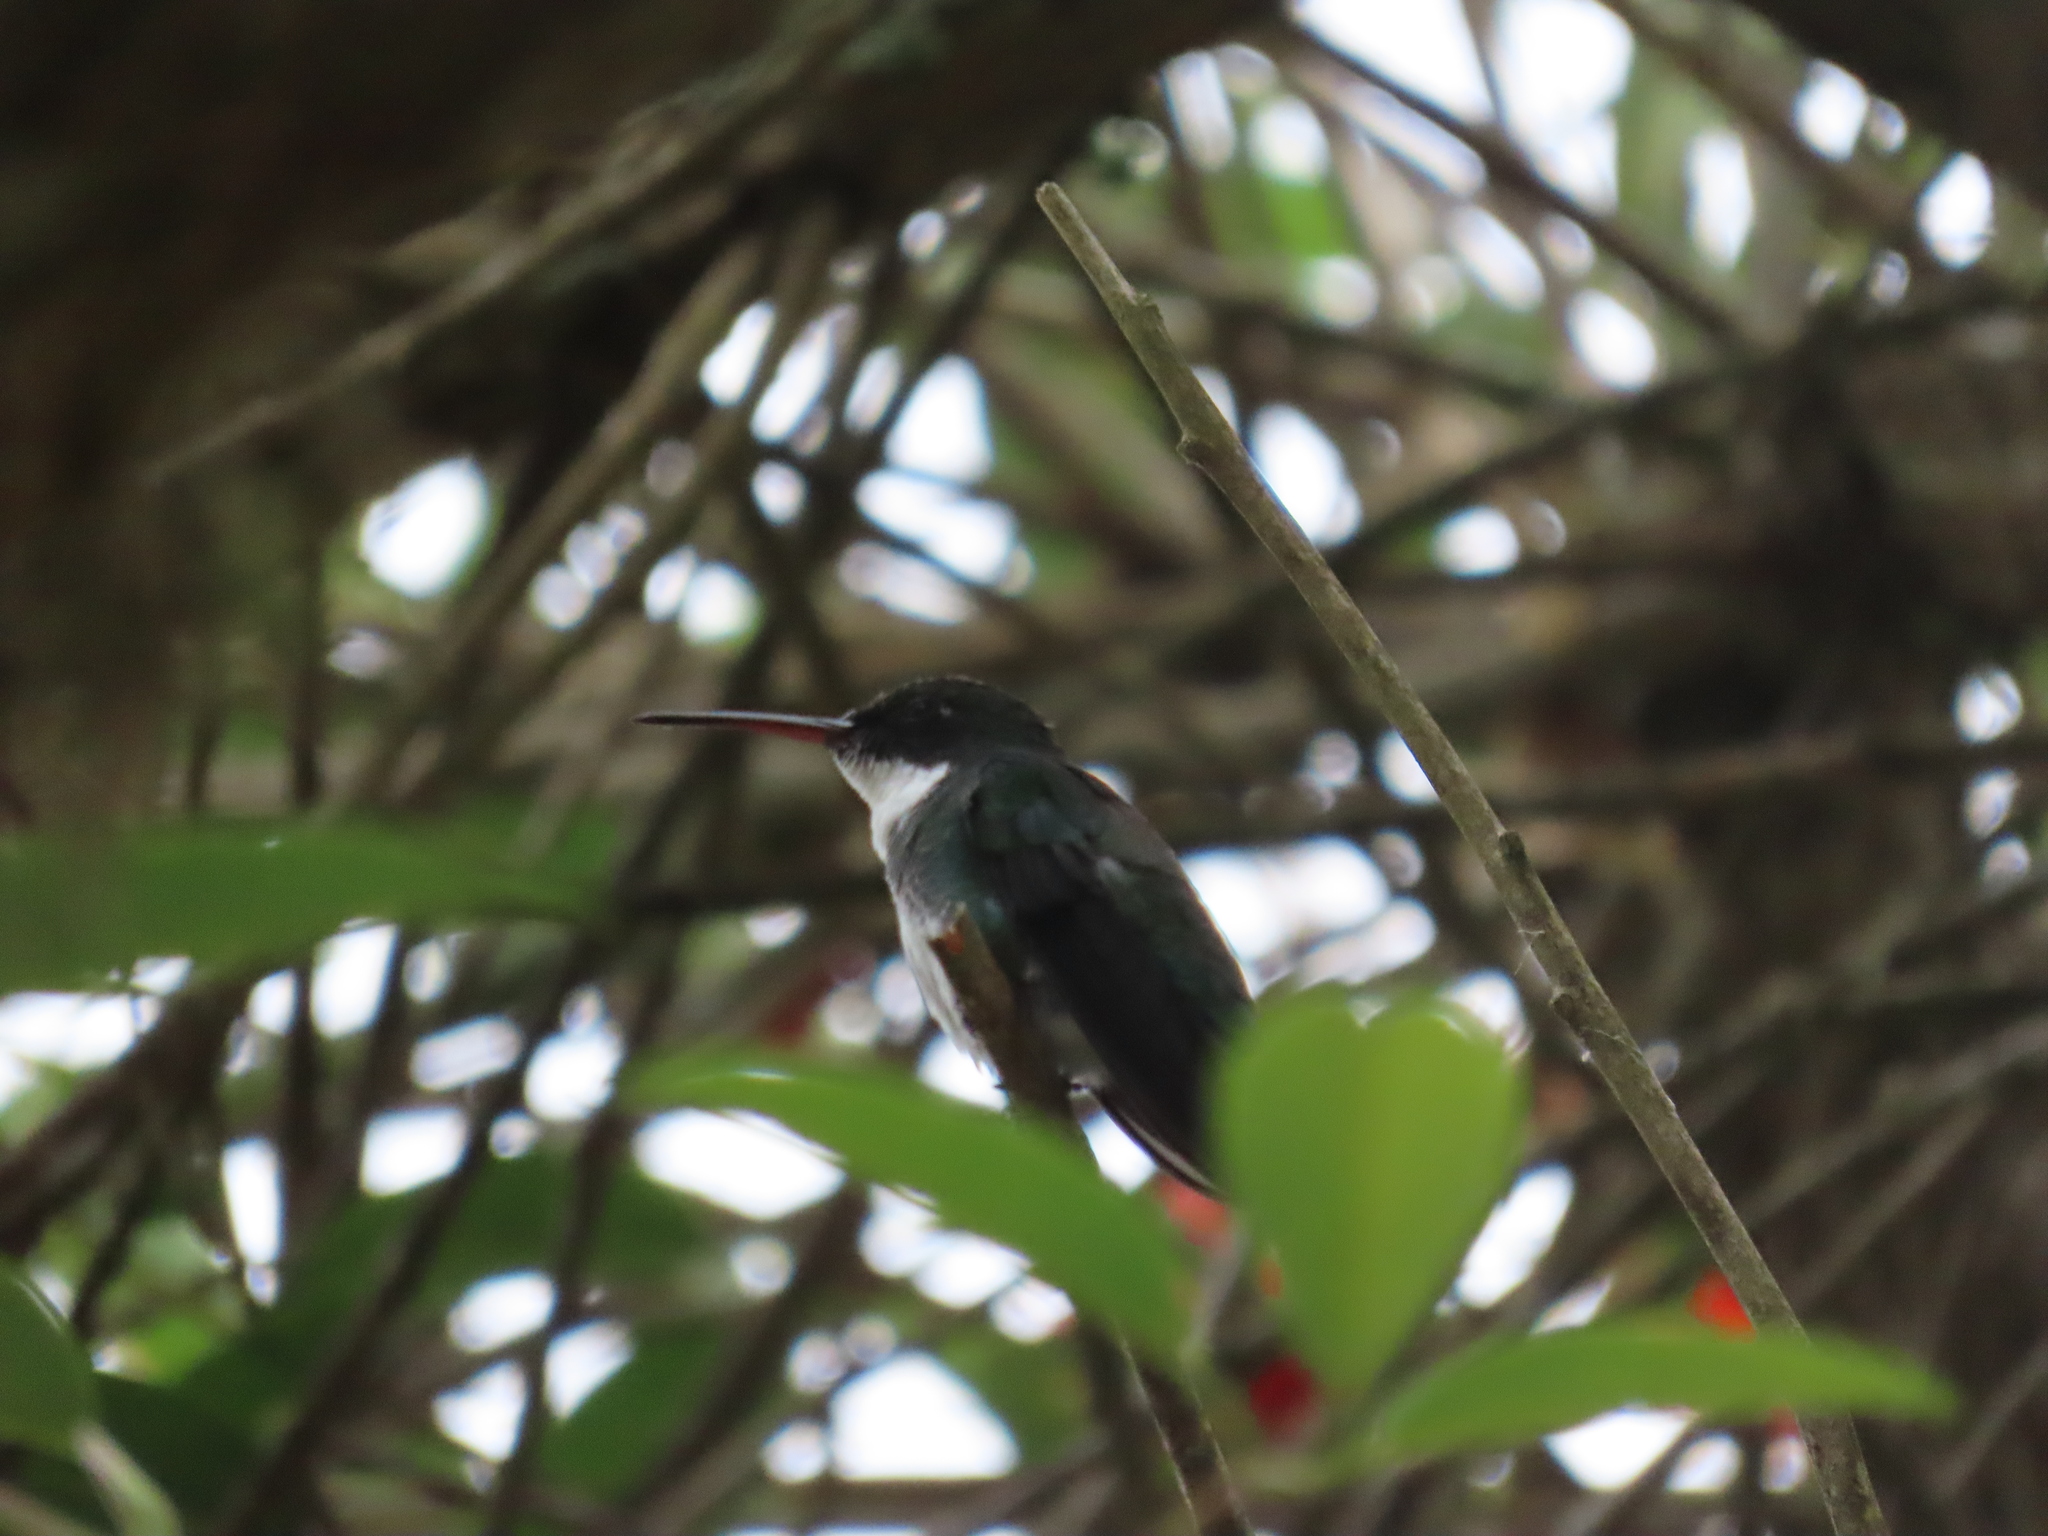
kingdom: Animalia
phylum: Chordata
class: Aves
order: Apodiformes
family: Trochilidae
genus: Leucochloris
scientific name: Leucochloris albicollis
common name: White-throated hummingbird
